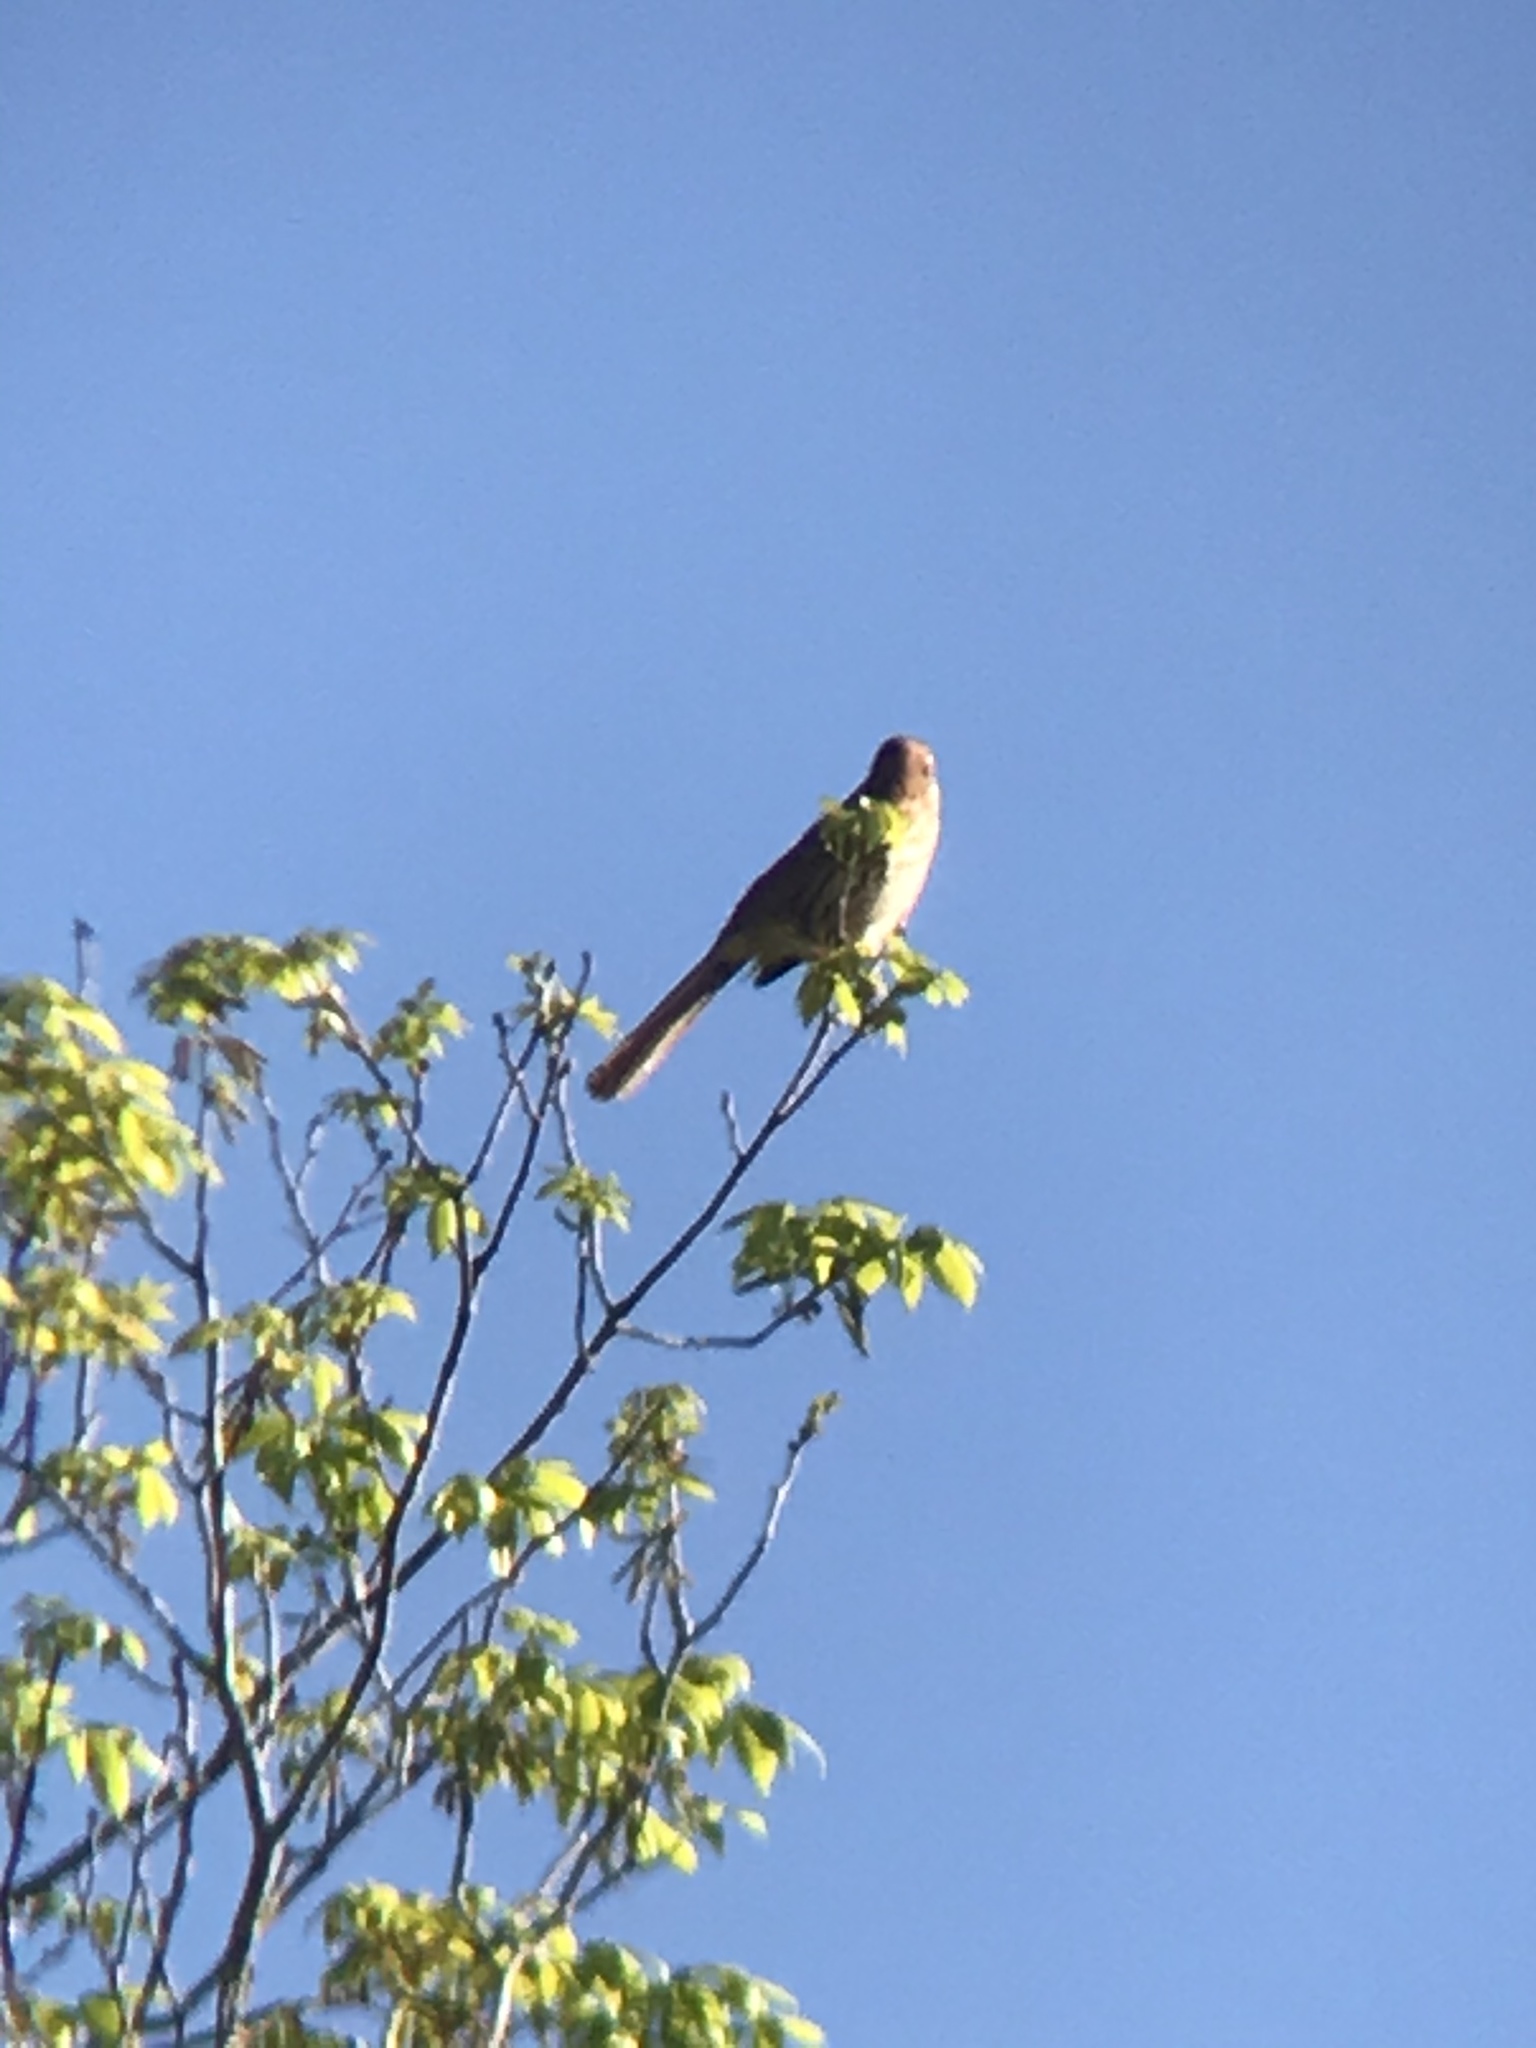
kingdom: Animalia
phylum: Chordata
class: Aves
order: Passeriformes
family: Mimidae
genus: Toxostoma
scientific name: Toxostoma rufum
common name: Brown thrasher
